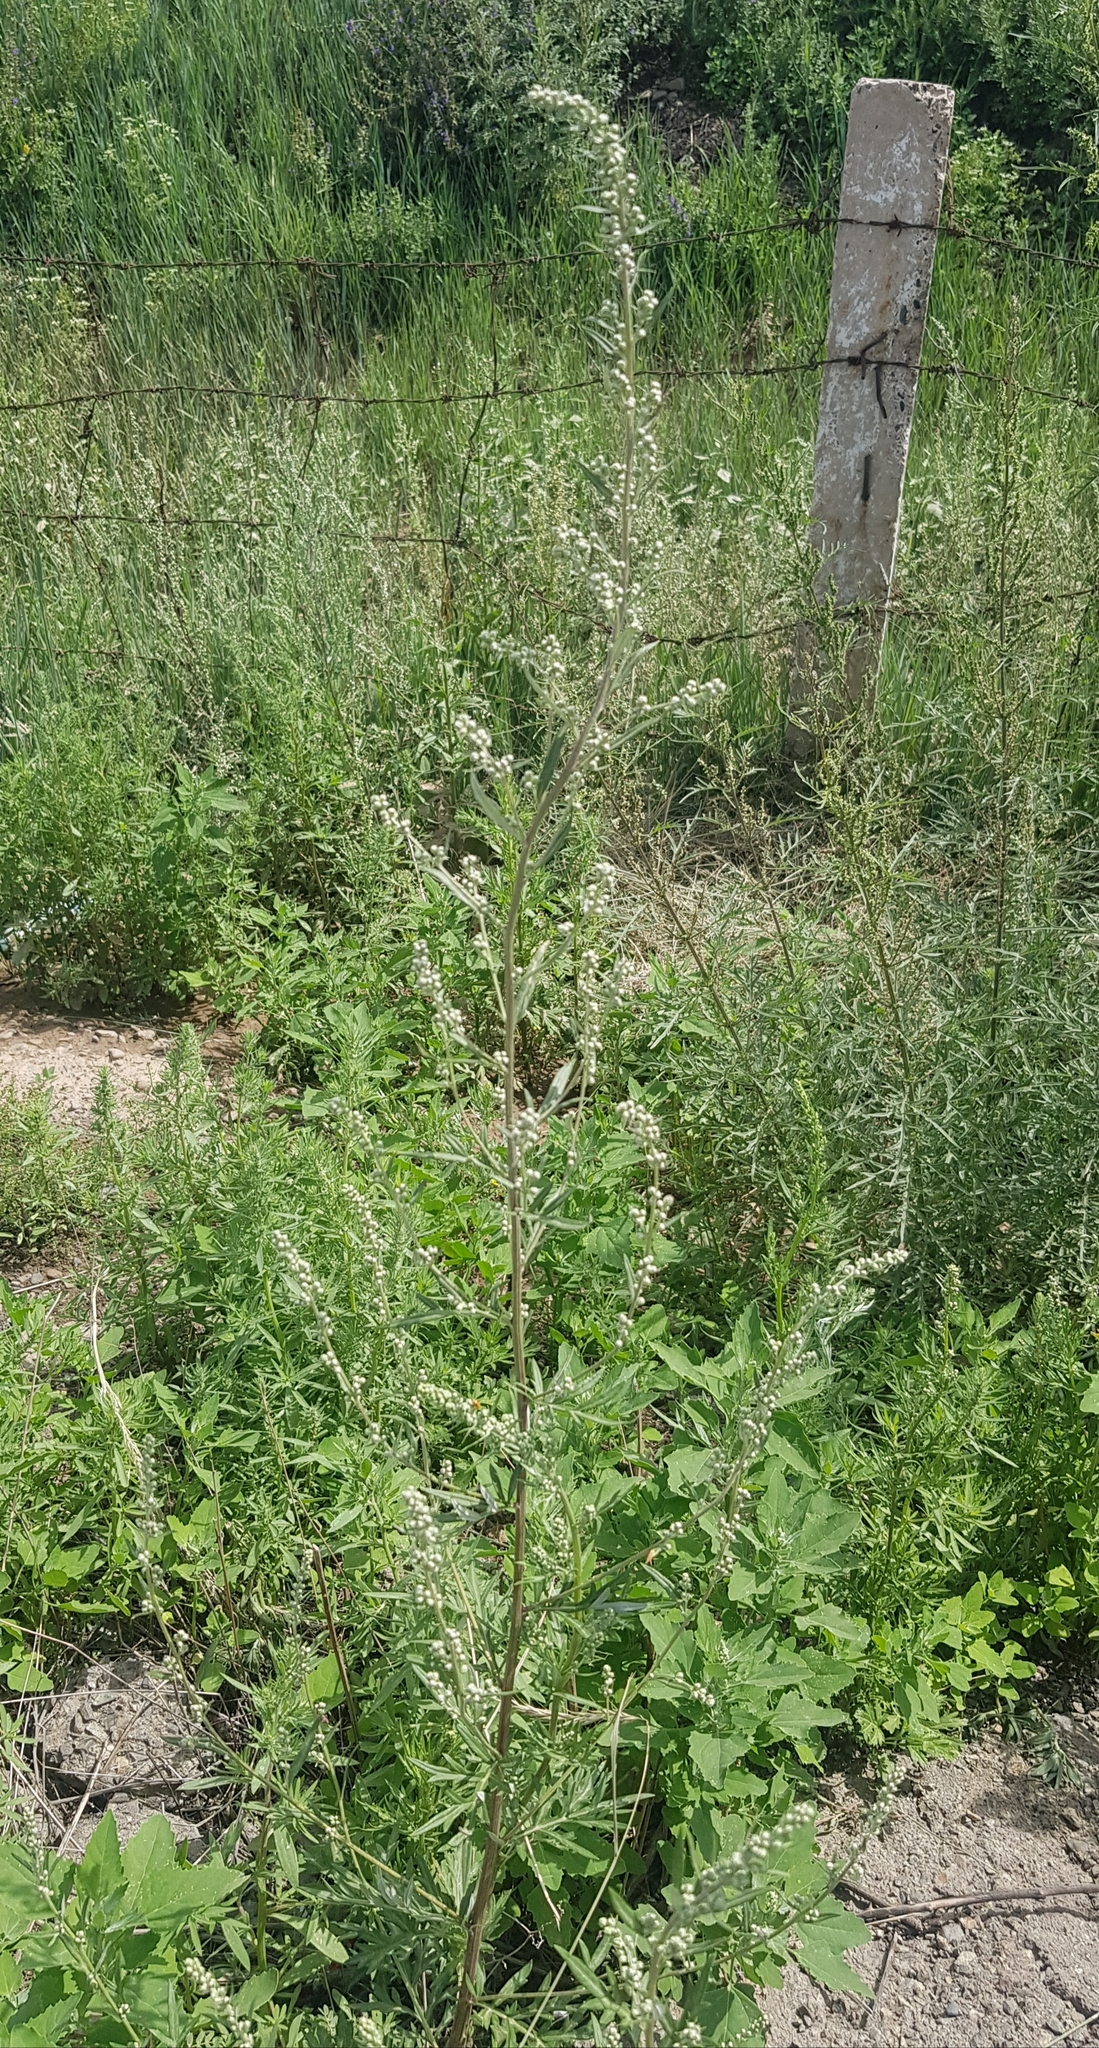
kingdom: Plantae
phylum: Tracheophyta
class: Magnoliopsida
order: Asterales
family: Asteraceae
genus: Artemisia
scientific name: Artemisia sieversiana
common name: Sieversian wormwood
